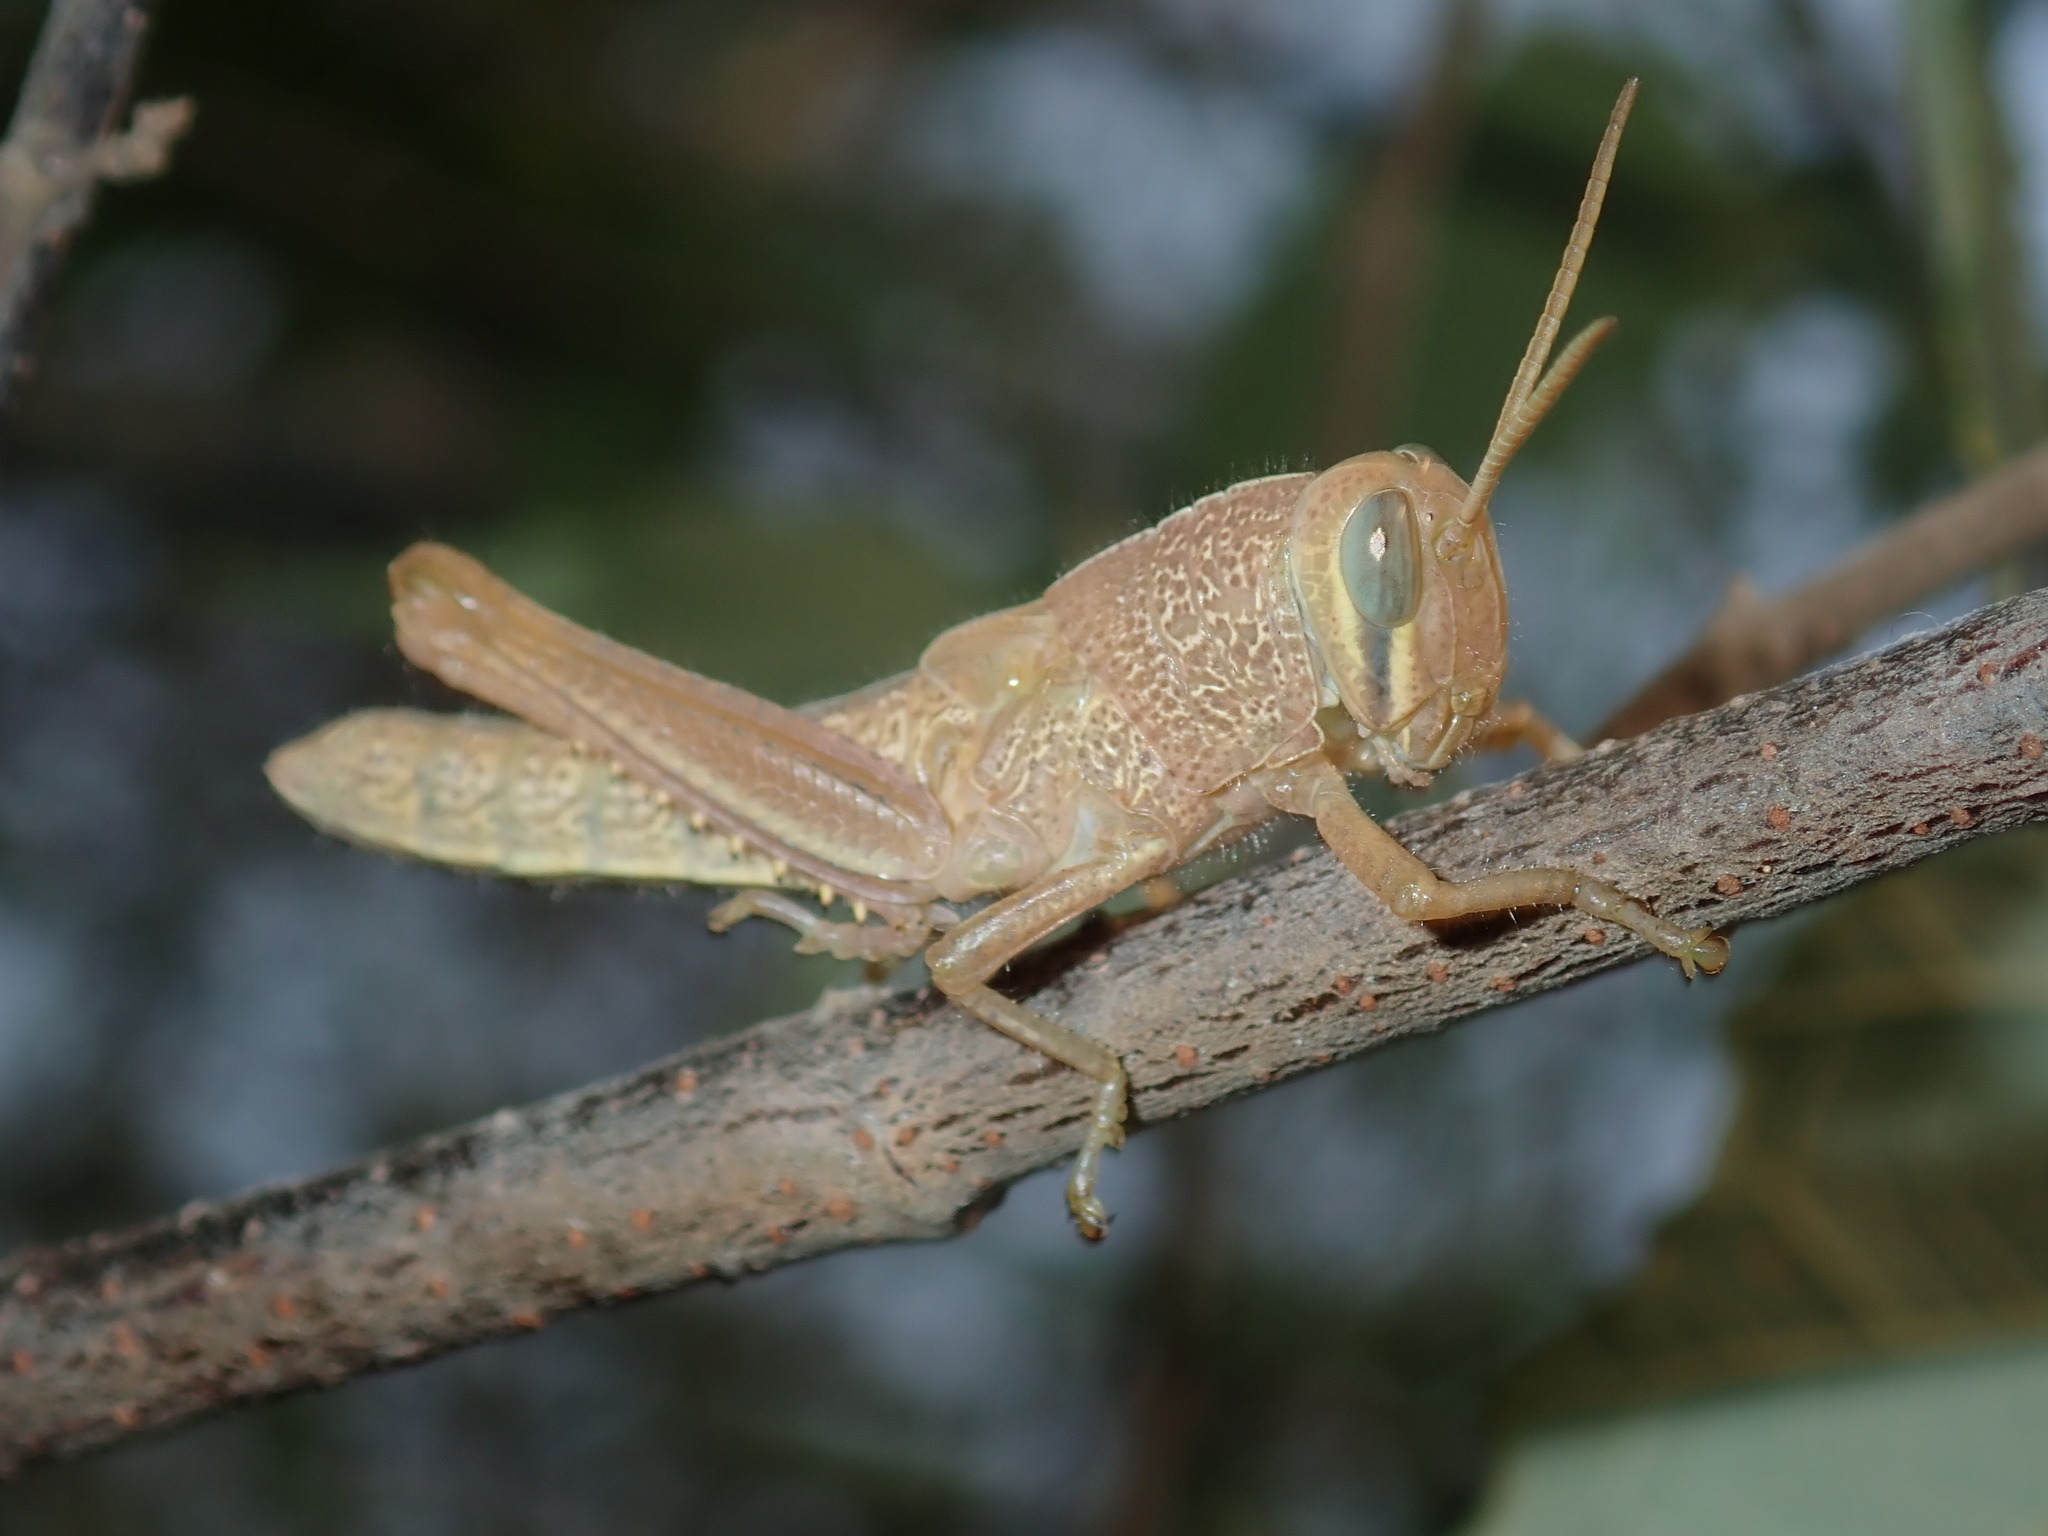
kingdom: Animalia
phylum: Arthropoda
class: Insecta
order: Orthoptera
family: Acrididae
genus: Austracris
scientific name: Austracris proxima
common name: Confusing spur-throated locust
